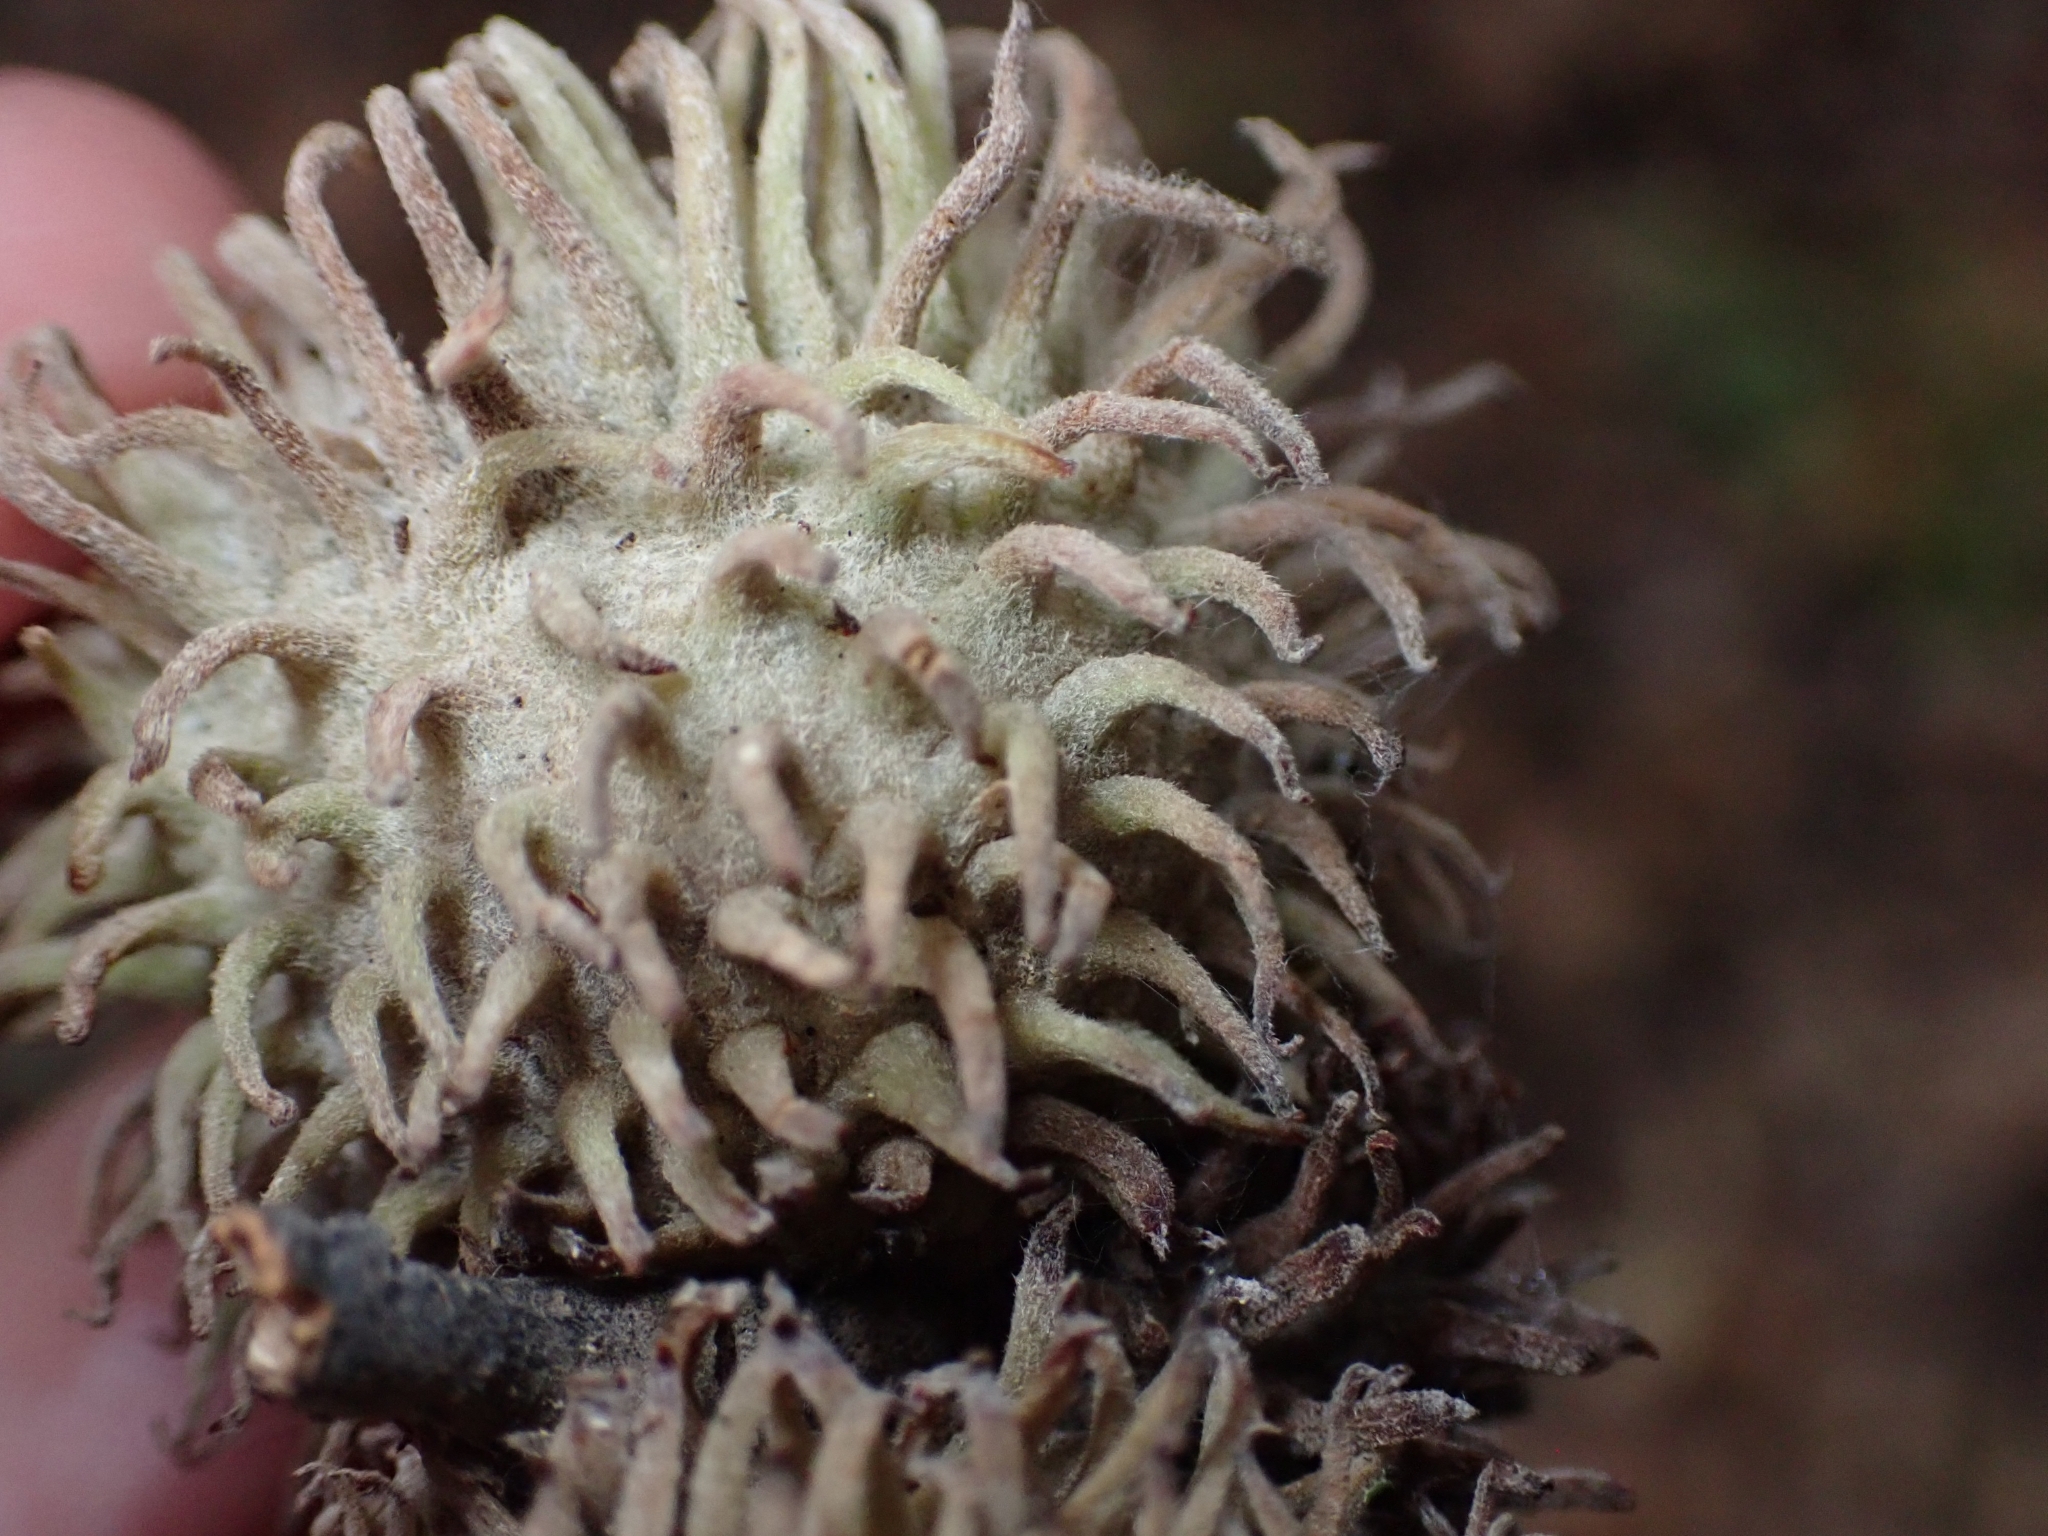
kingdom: Plantae
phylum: Tracheophyta
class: Magnoliopsida
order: Fagales
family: Fagaceae
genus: Quercus
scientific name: Quercus cerris
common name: Turkey oak
